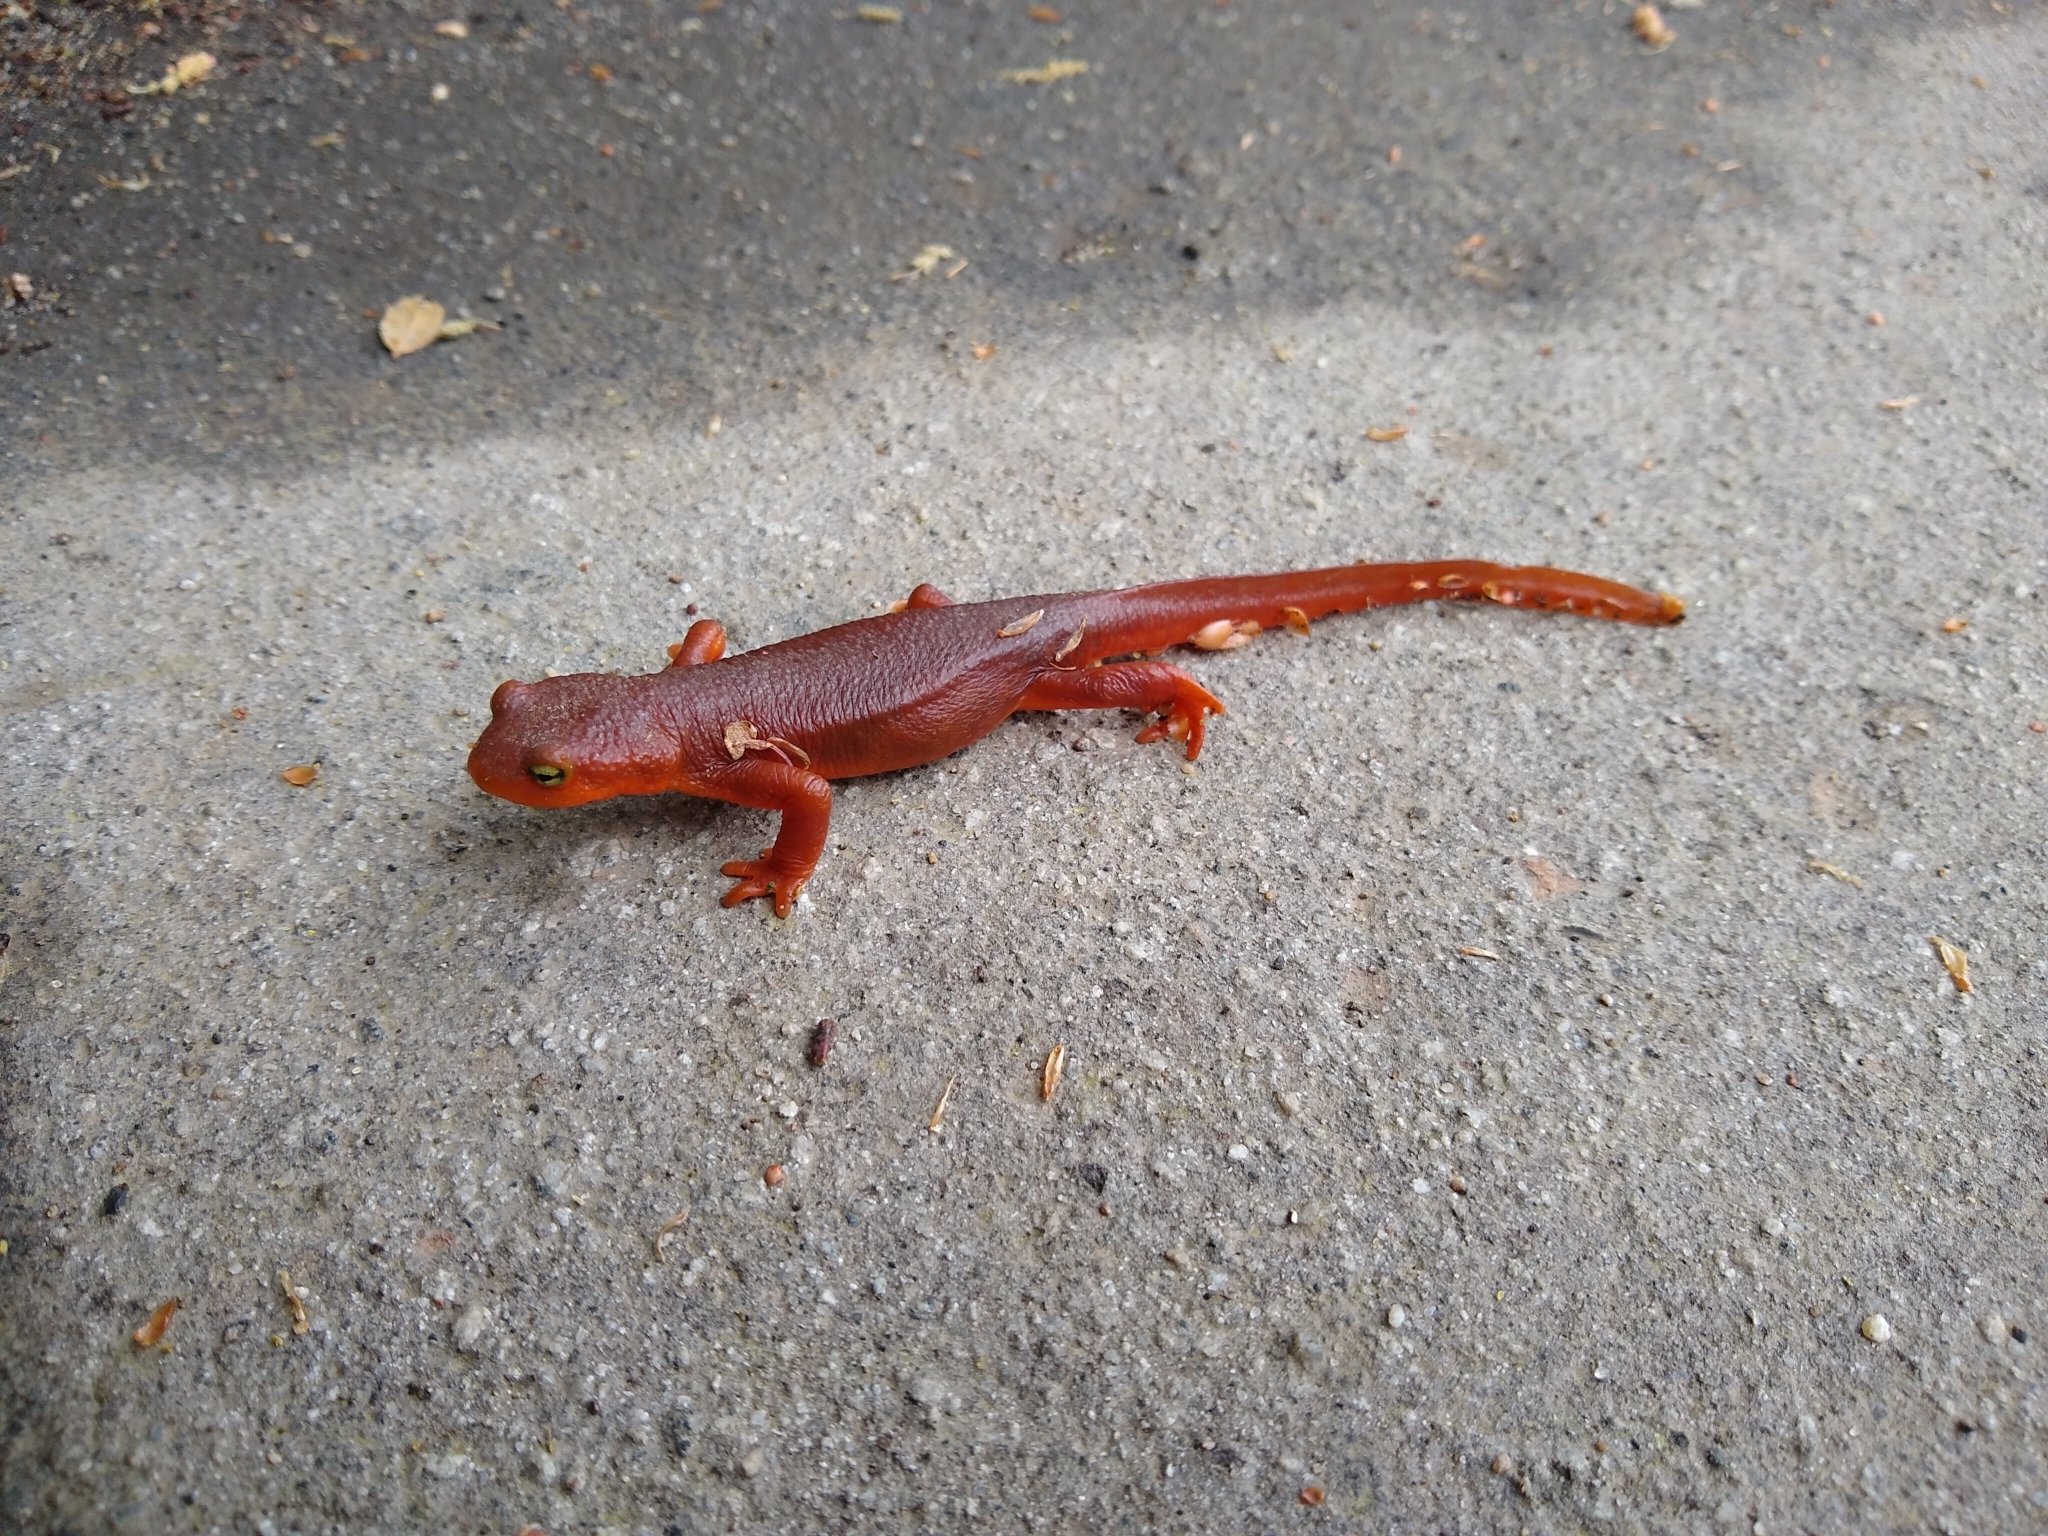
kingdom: Animalia
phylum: Chordata
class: Amphibia
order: Caudata
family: Salamandridae
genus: Taricha
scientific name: Taricha
